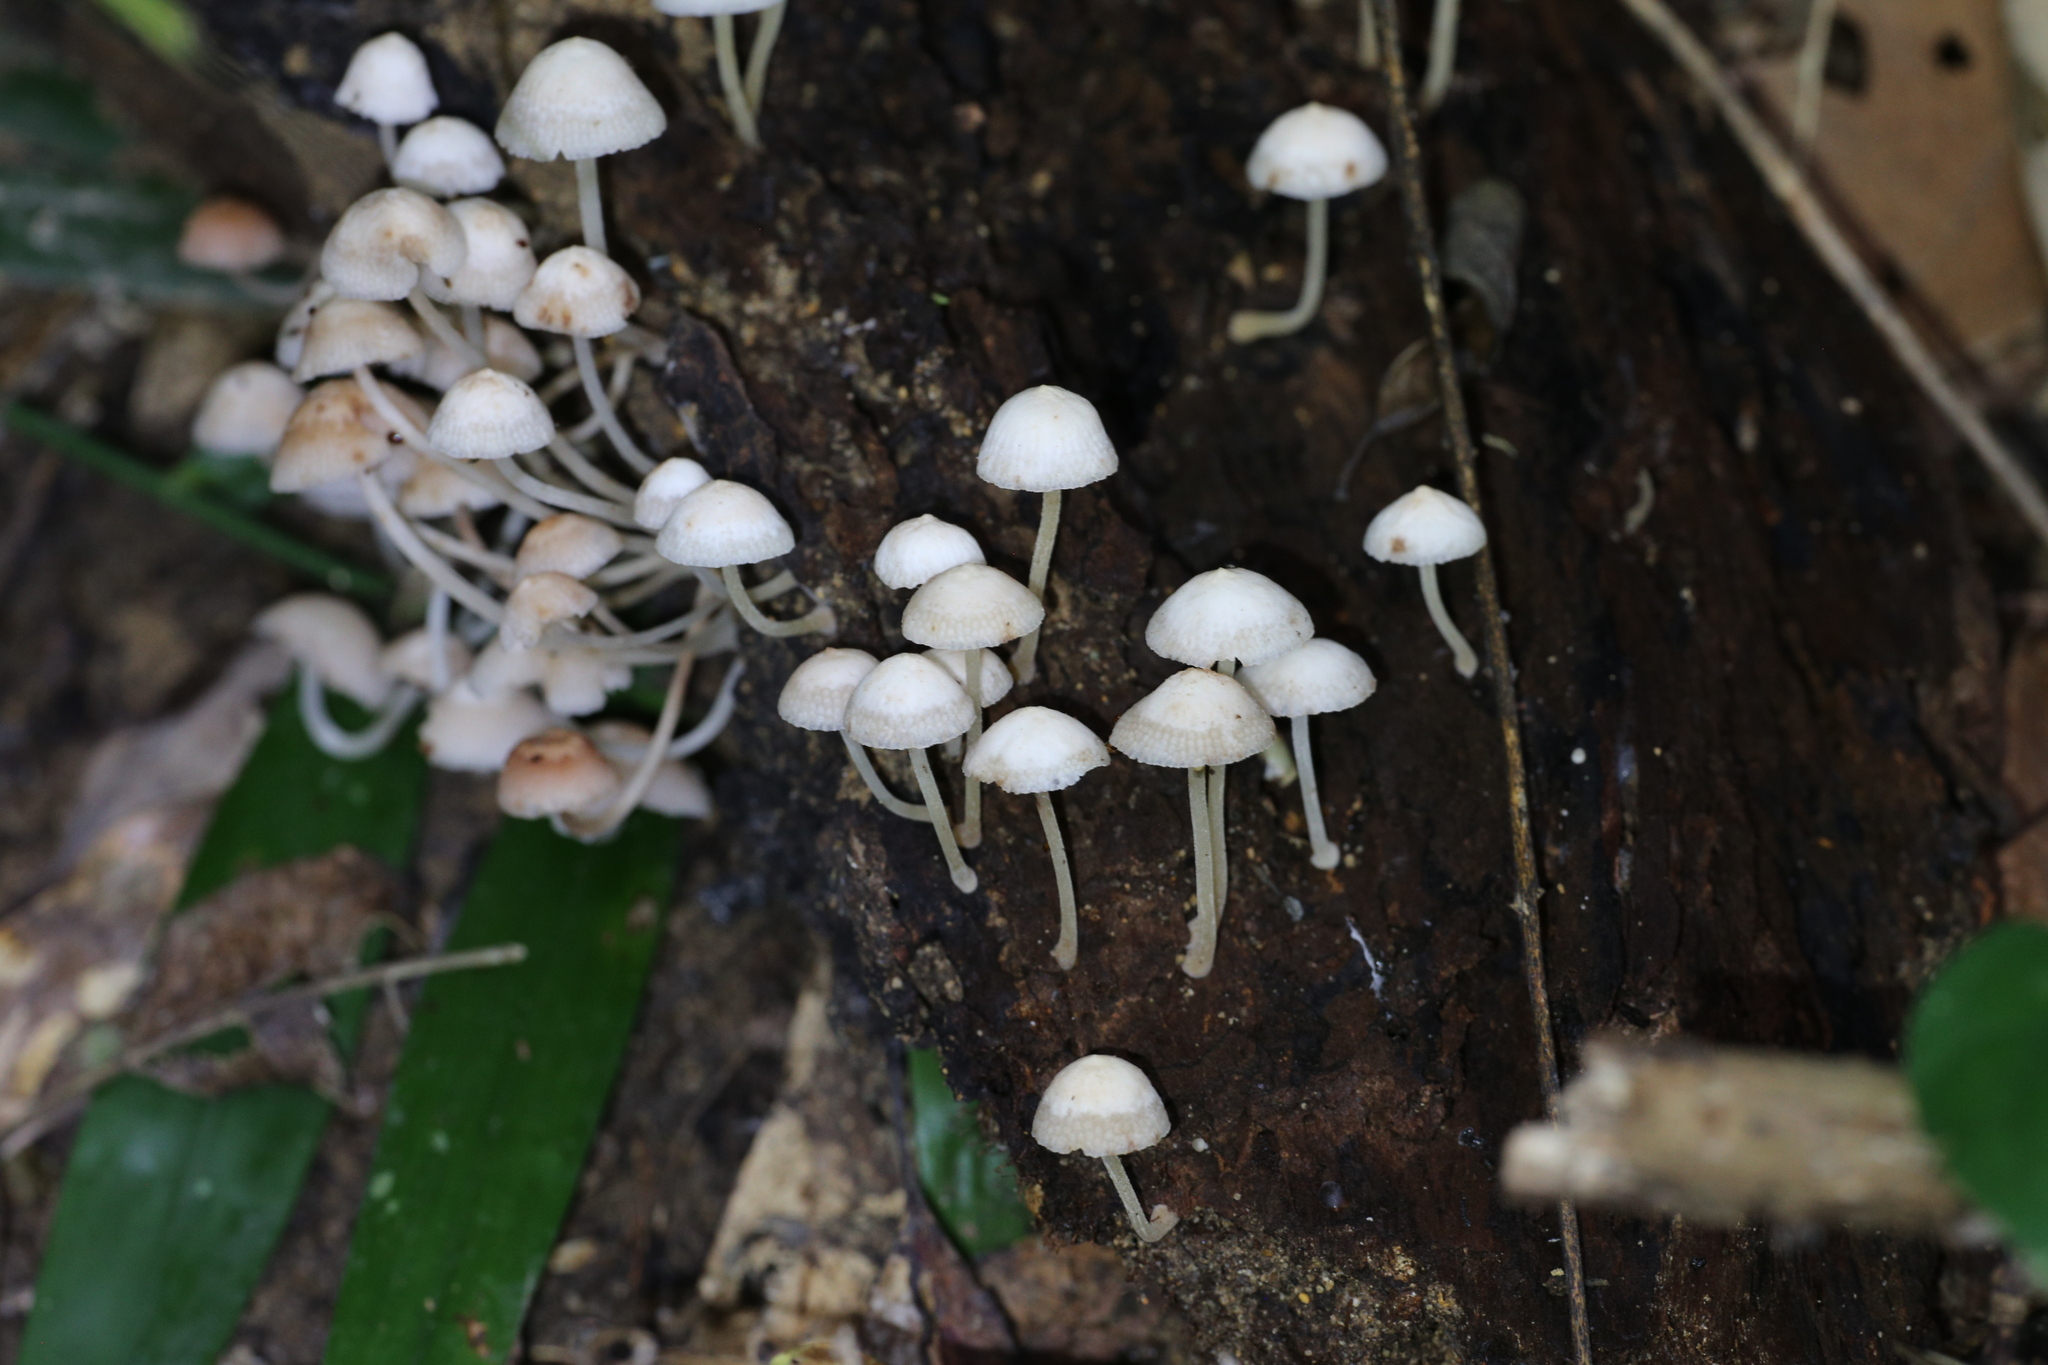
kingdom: Fungi
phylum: Basidiomycota
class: Agaricomycetes
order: Agaricales
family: Mycenaceae
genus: Filoboletus
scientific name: Filoboletus manipularis
